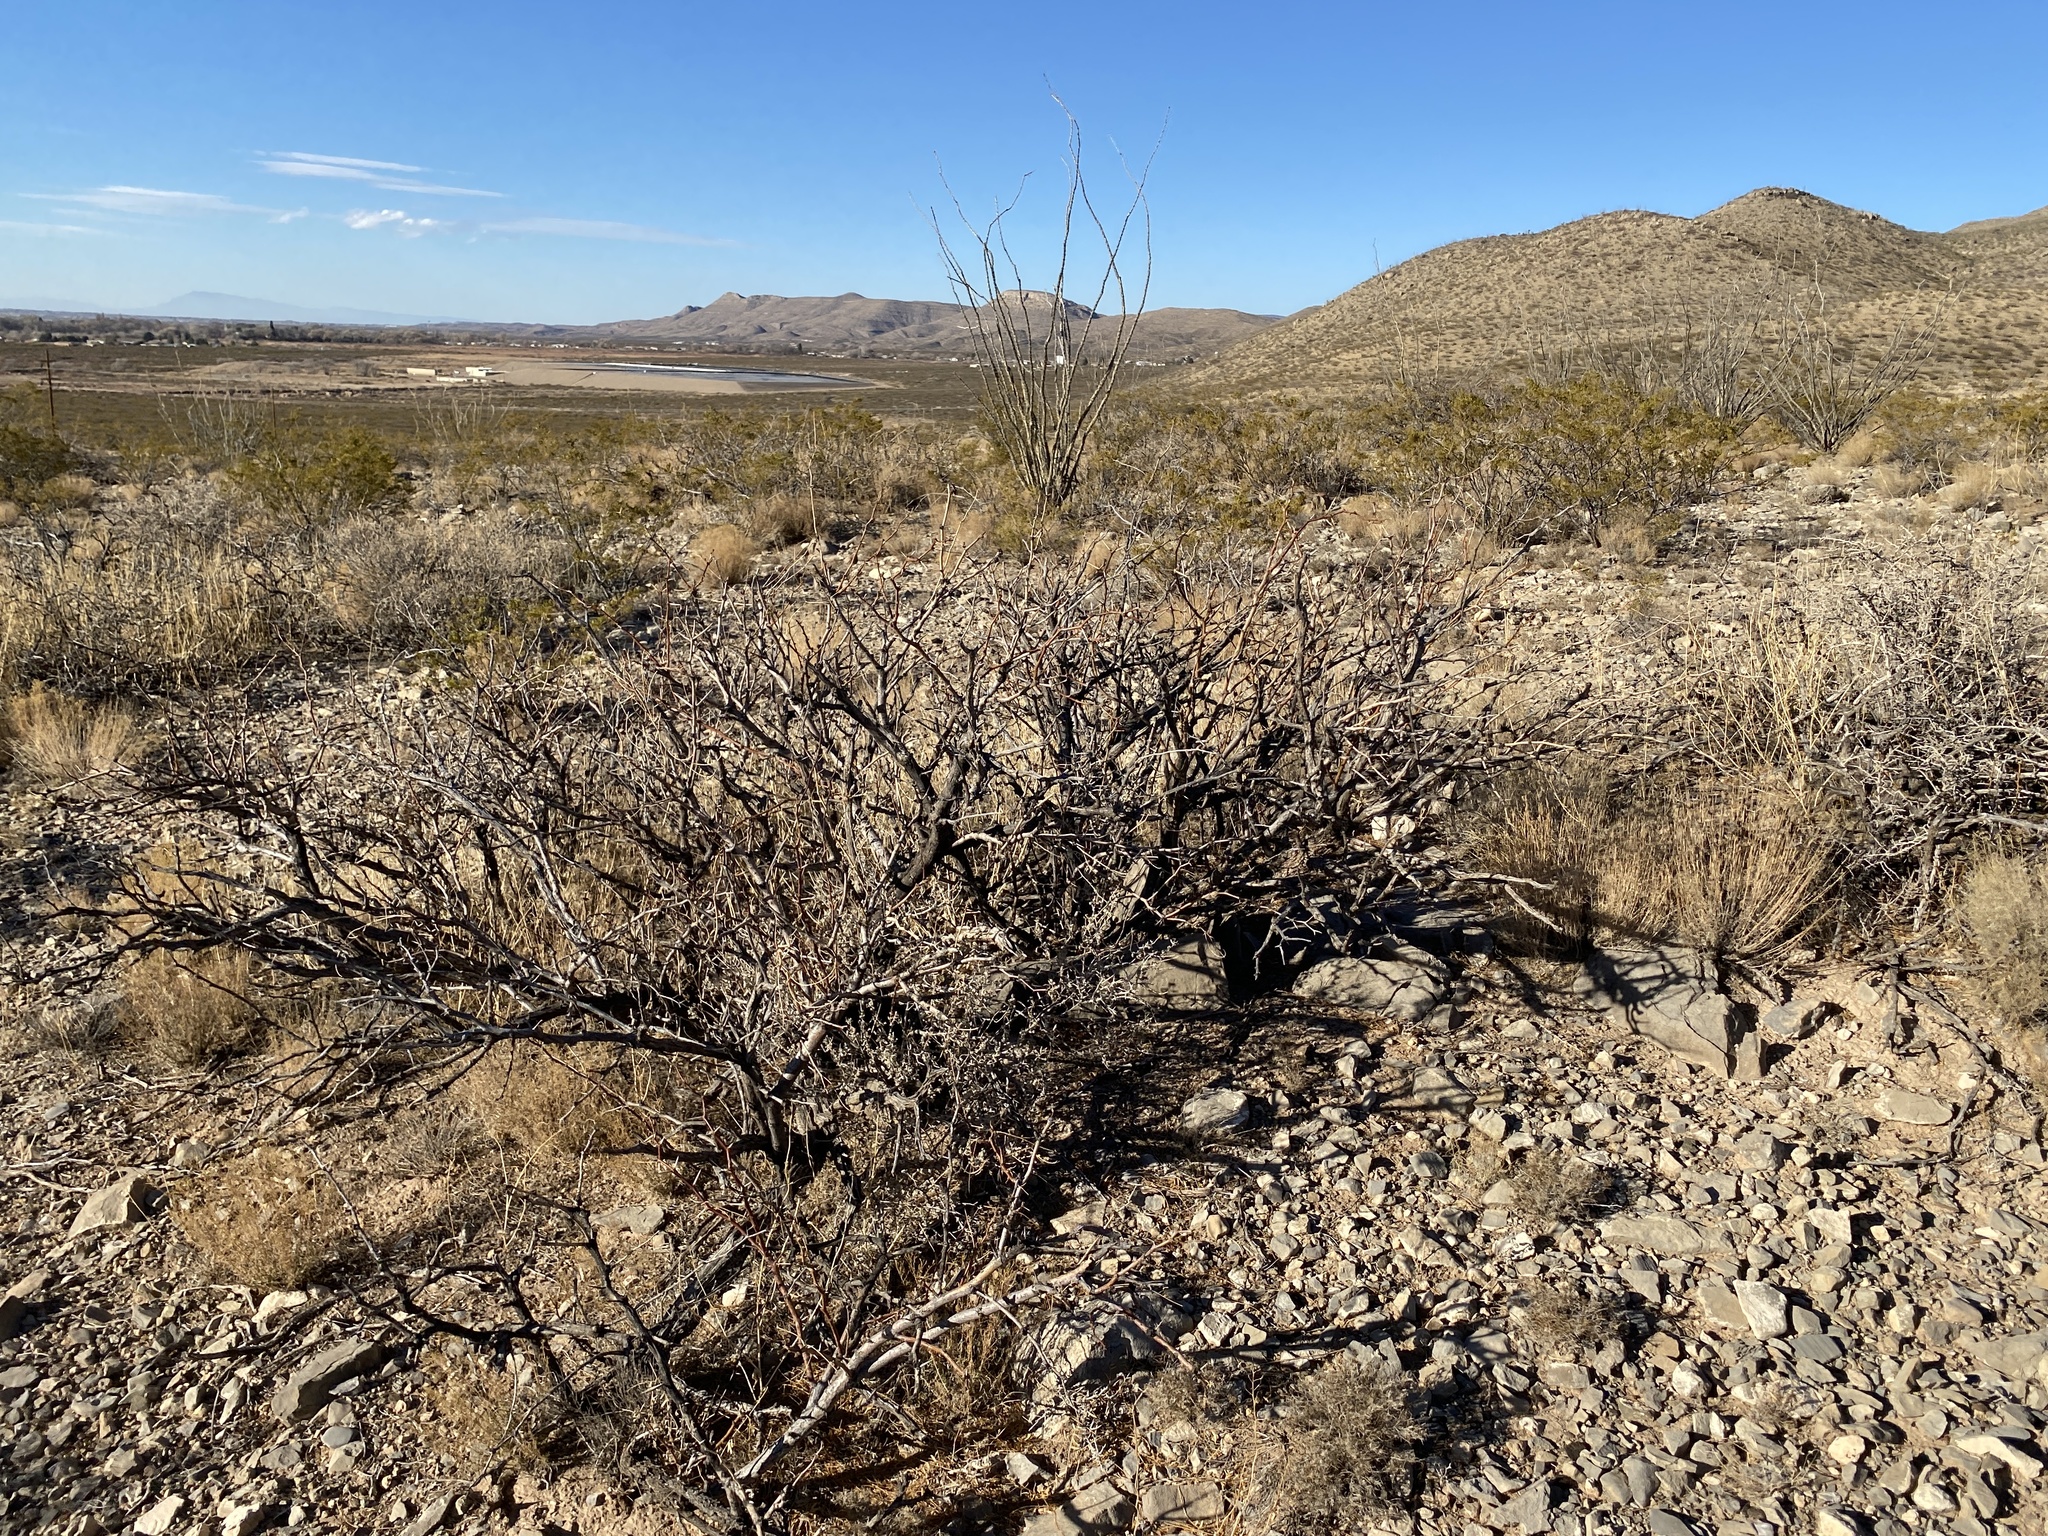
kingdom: Plantae
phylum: Tracheophyta
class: Magnoliopsida
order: Fabales
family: Fabaceae
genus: Prosopis
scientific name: Prosopis glandulosa
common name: Honey mesquite
